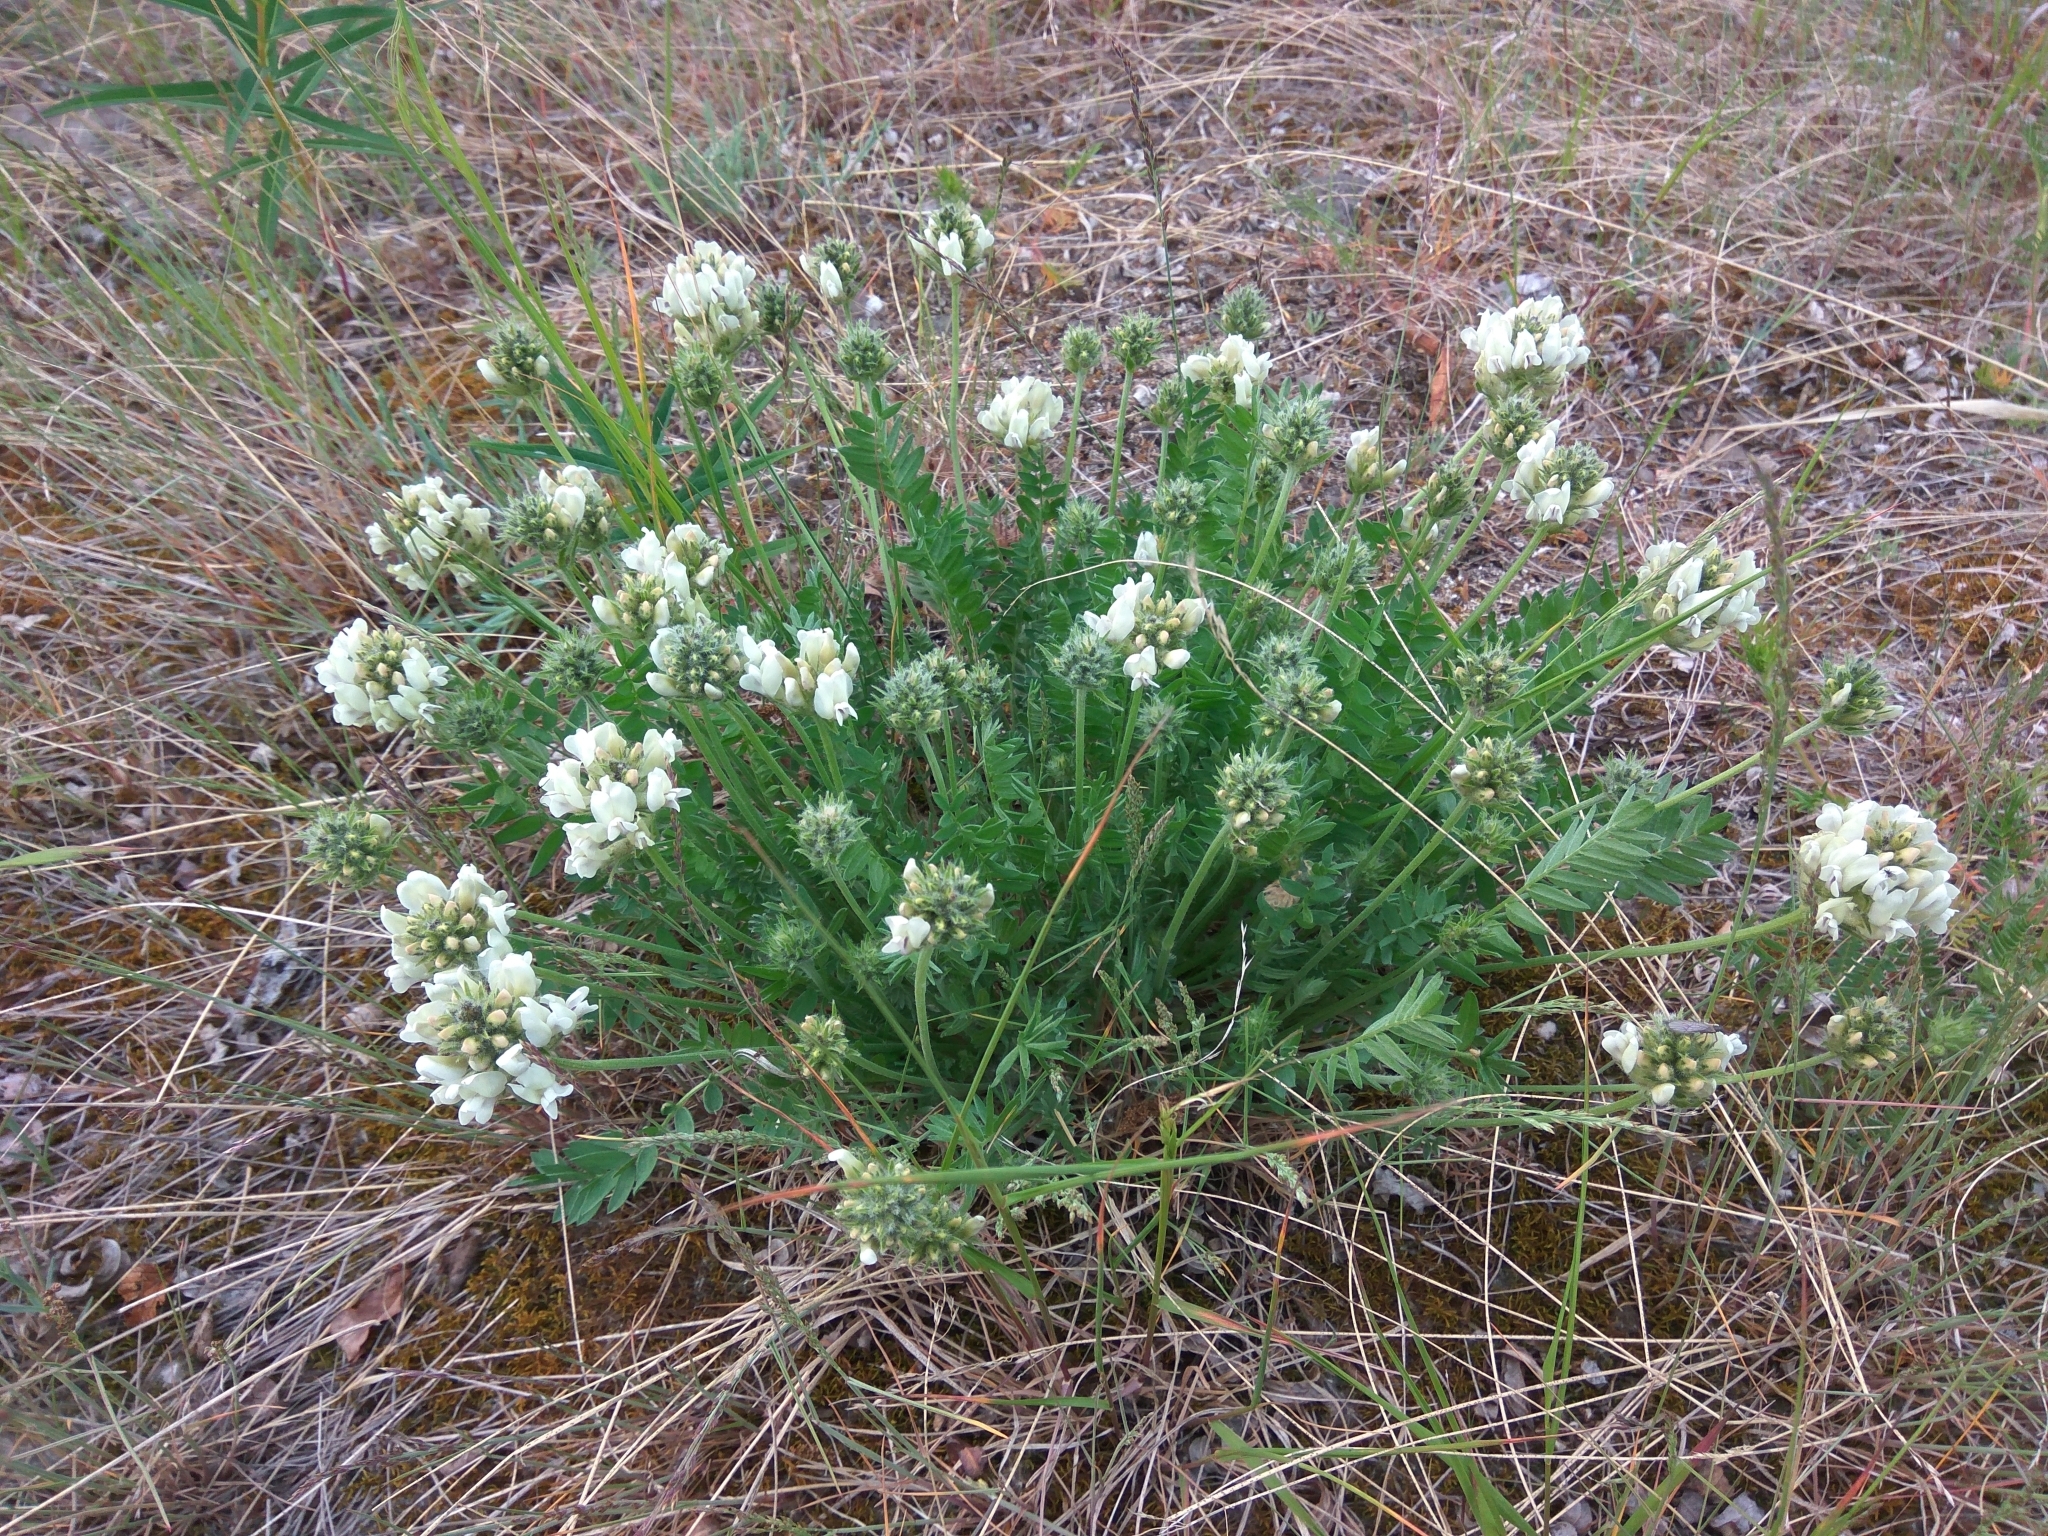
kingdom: Plantae
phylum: Tracheophyta
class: Magnoliopsida
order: Fabales
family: Fabaceae
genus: Oxytropis
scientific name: Oxytropis evenorum
